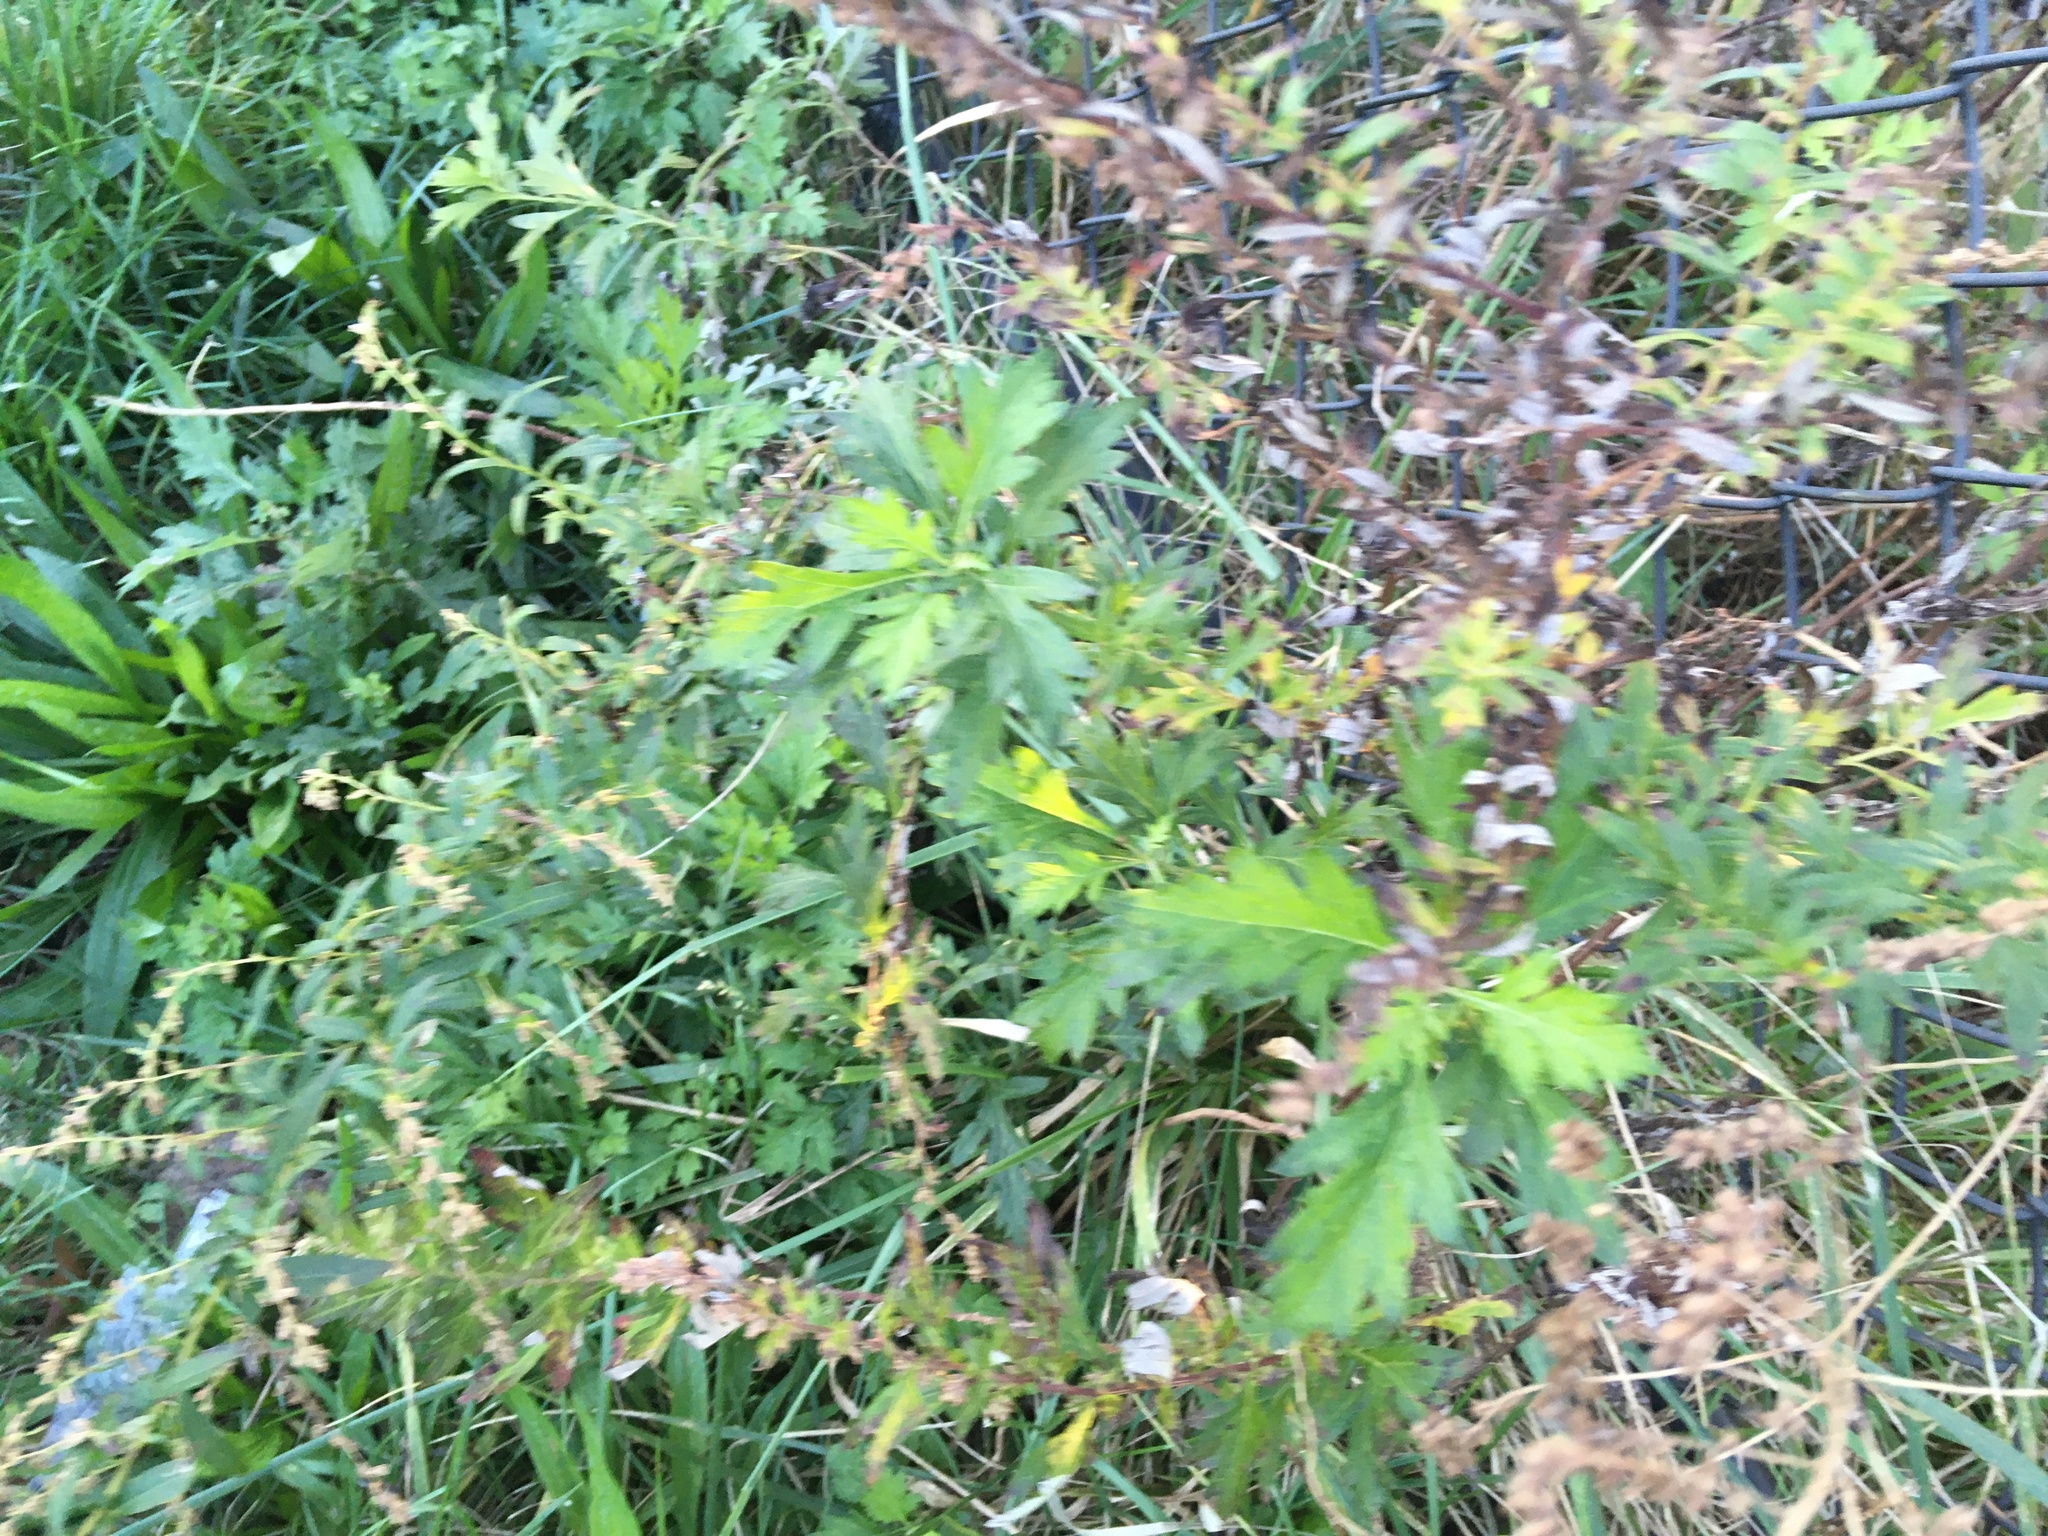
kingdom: Plantae
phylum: Tracheophyta
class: Magnoliopsida
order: Asterales
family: Asteraceae
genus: Artemisia
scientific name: Artemisia vulgaris
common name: Mugwort
